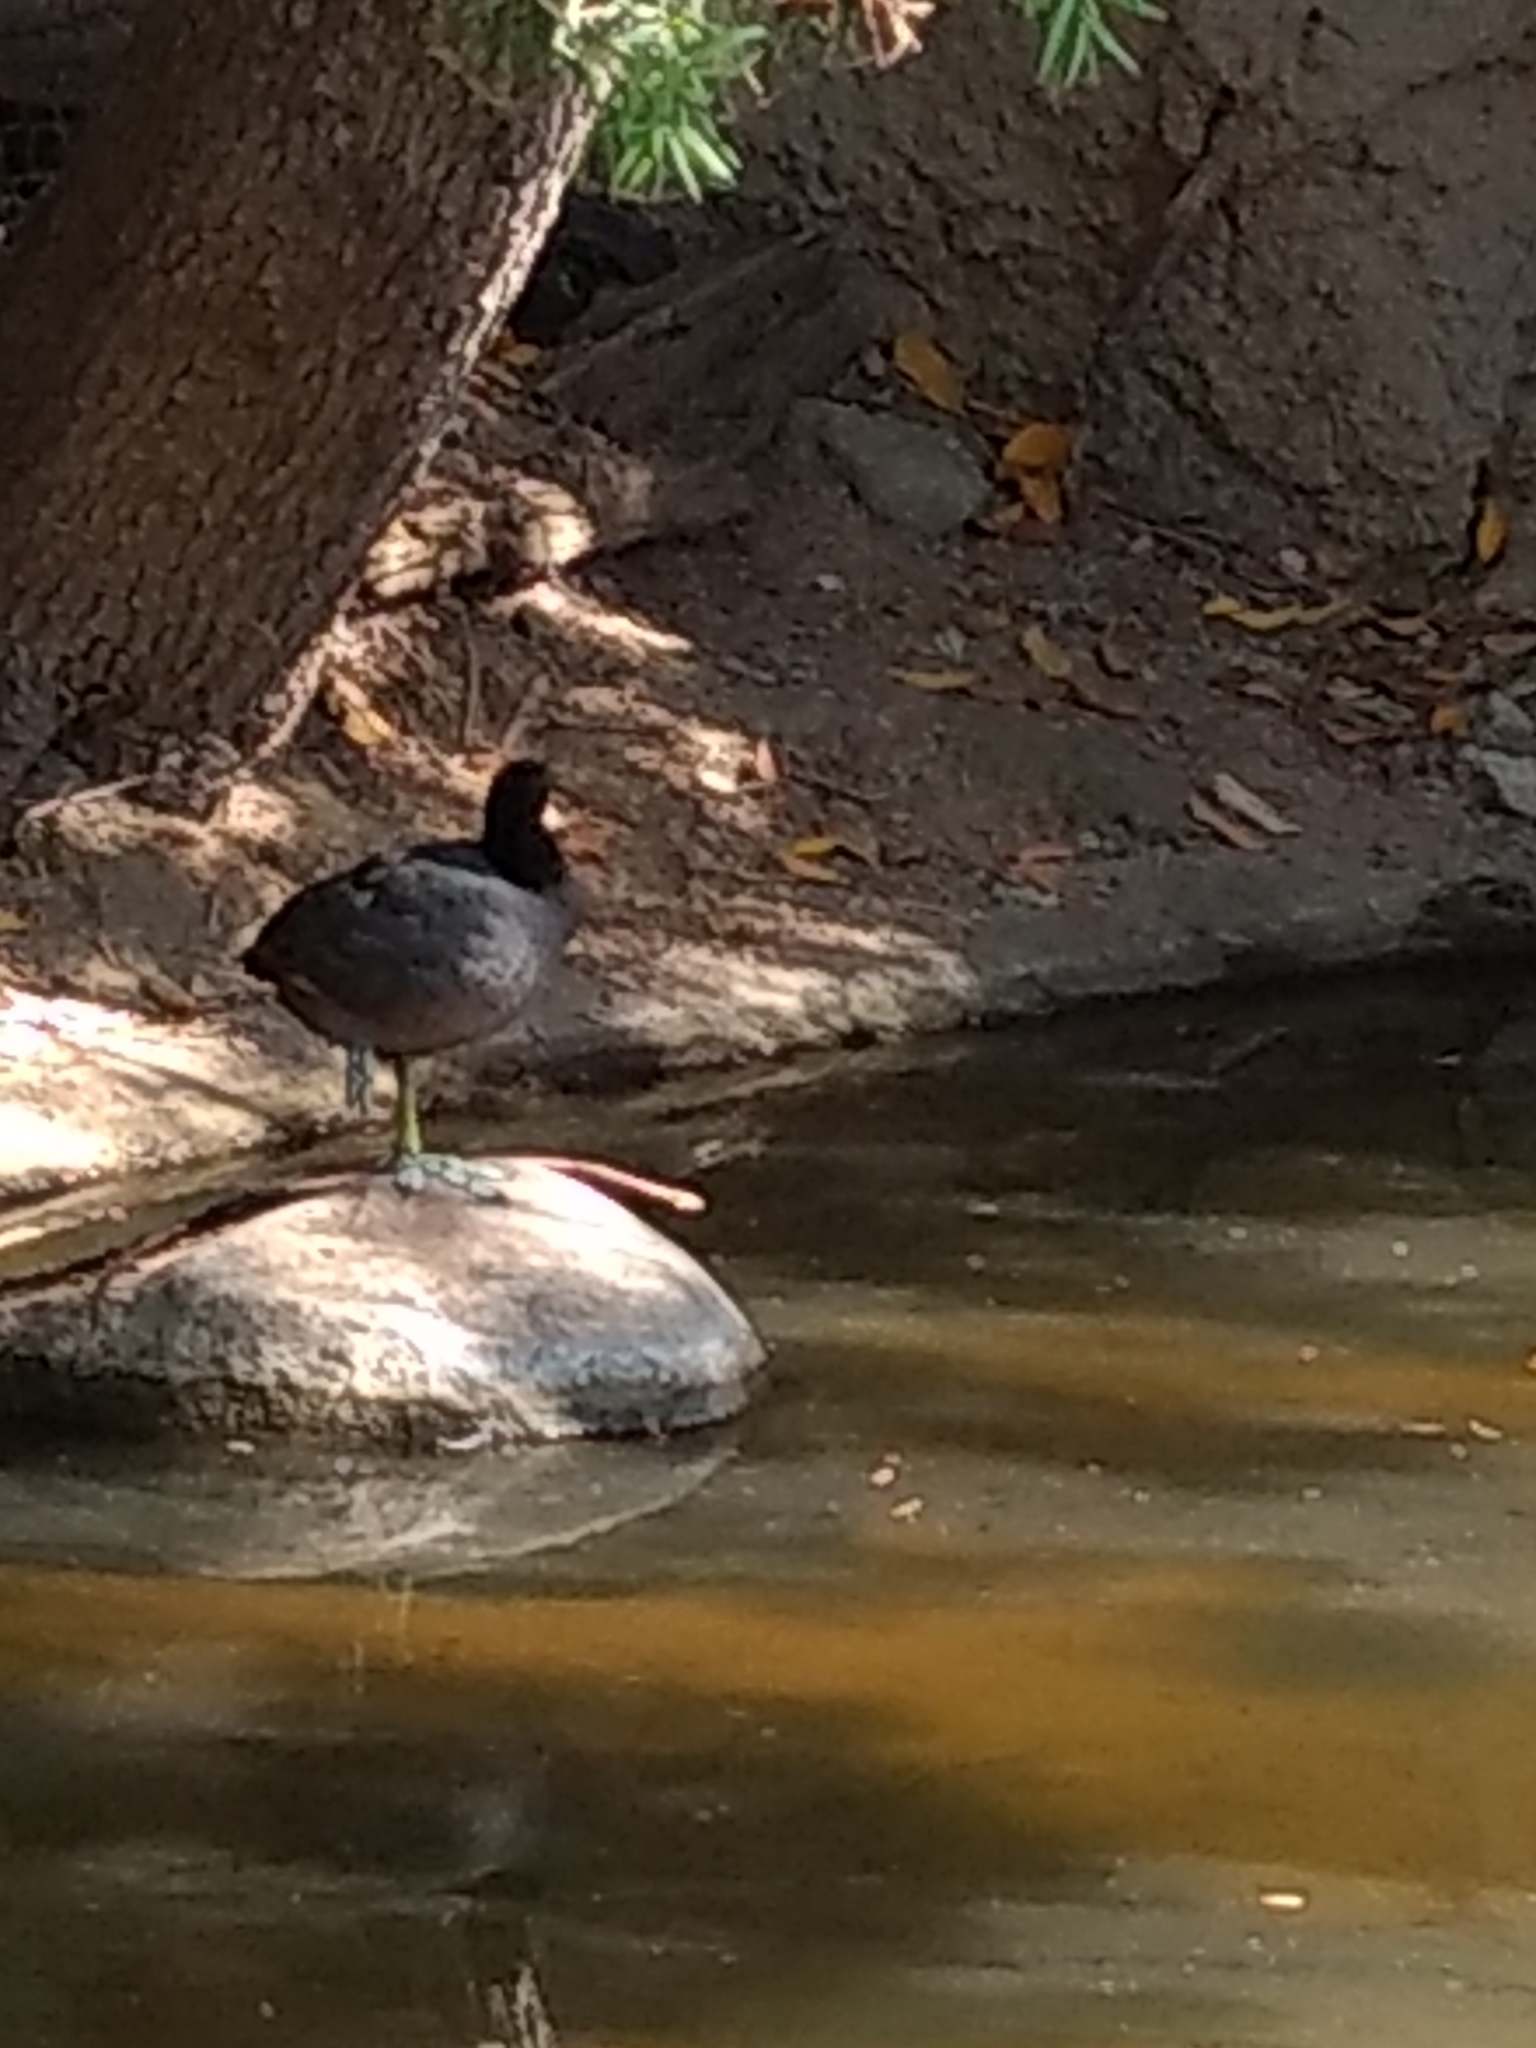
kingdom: Animalia
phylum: Chordata
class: Aves
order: Gruiformes
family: Rallidae
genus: Fulica
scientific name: Fulica americana
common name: American coot
